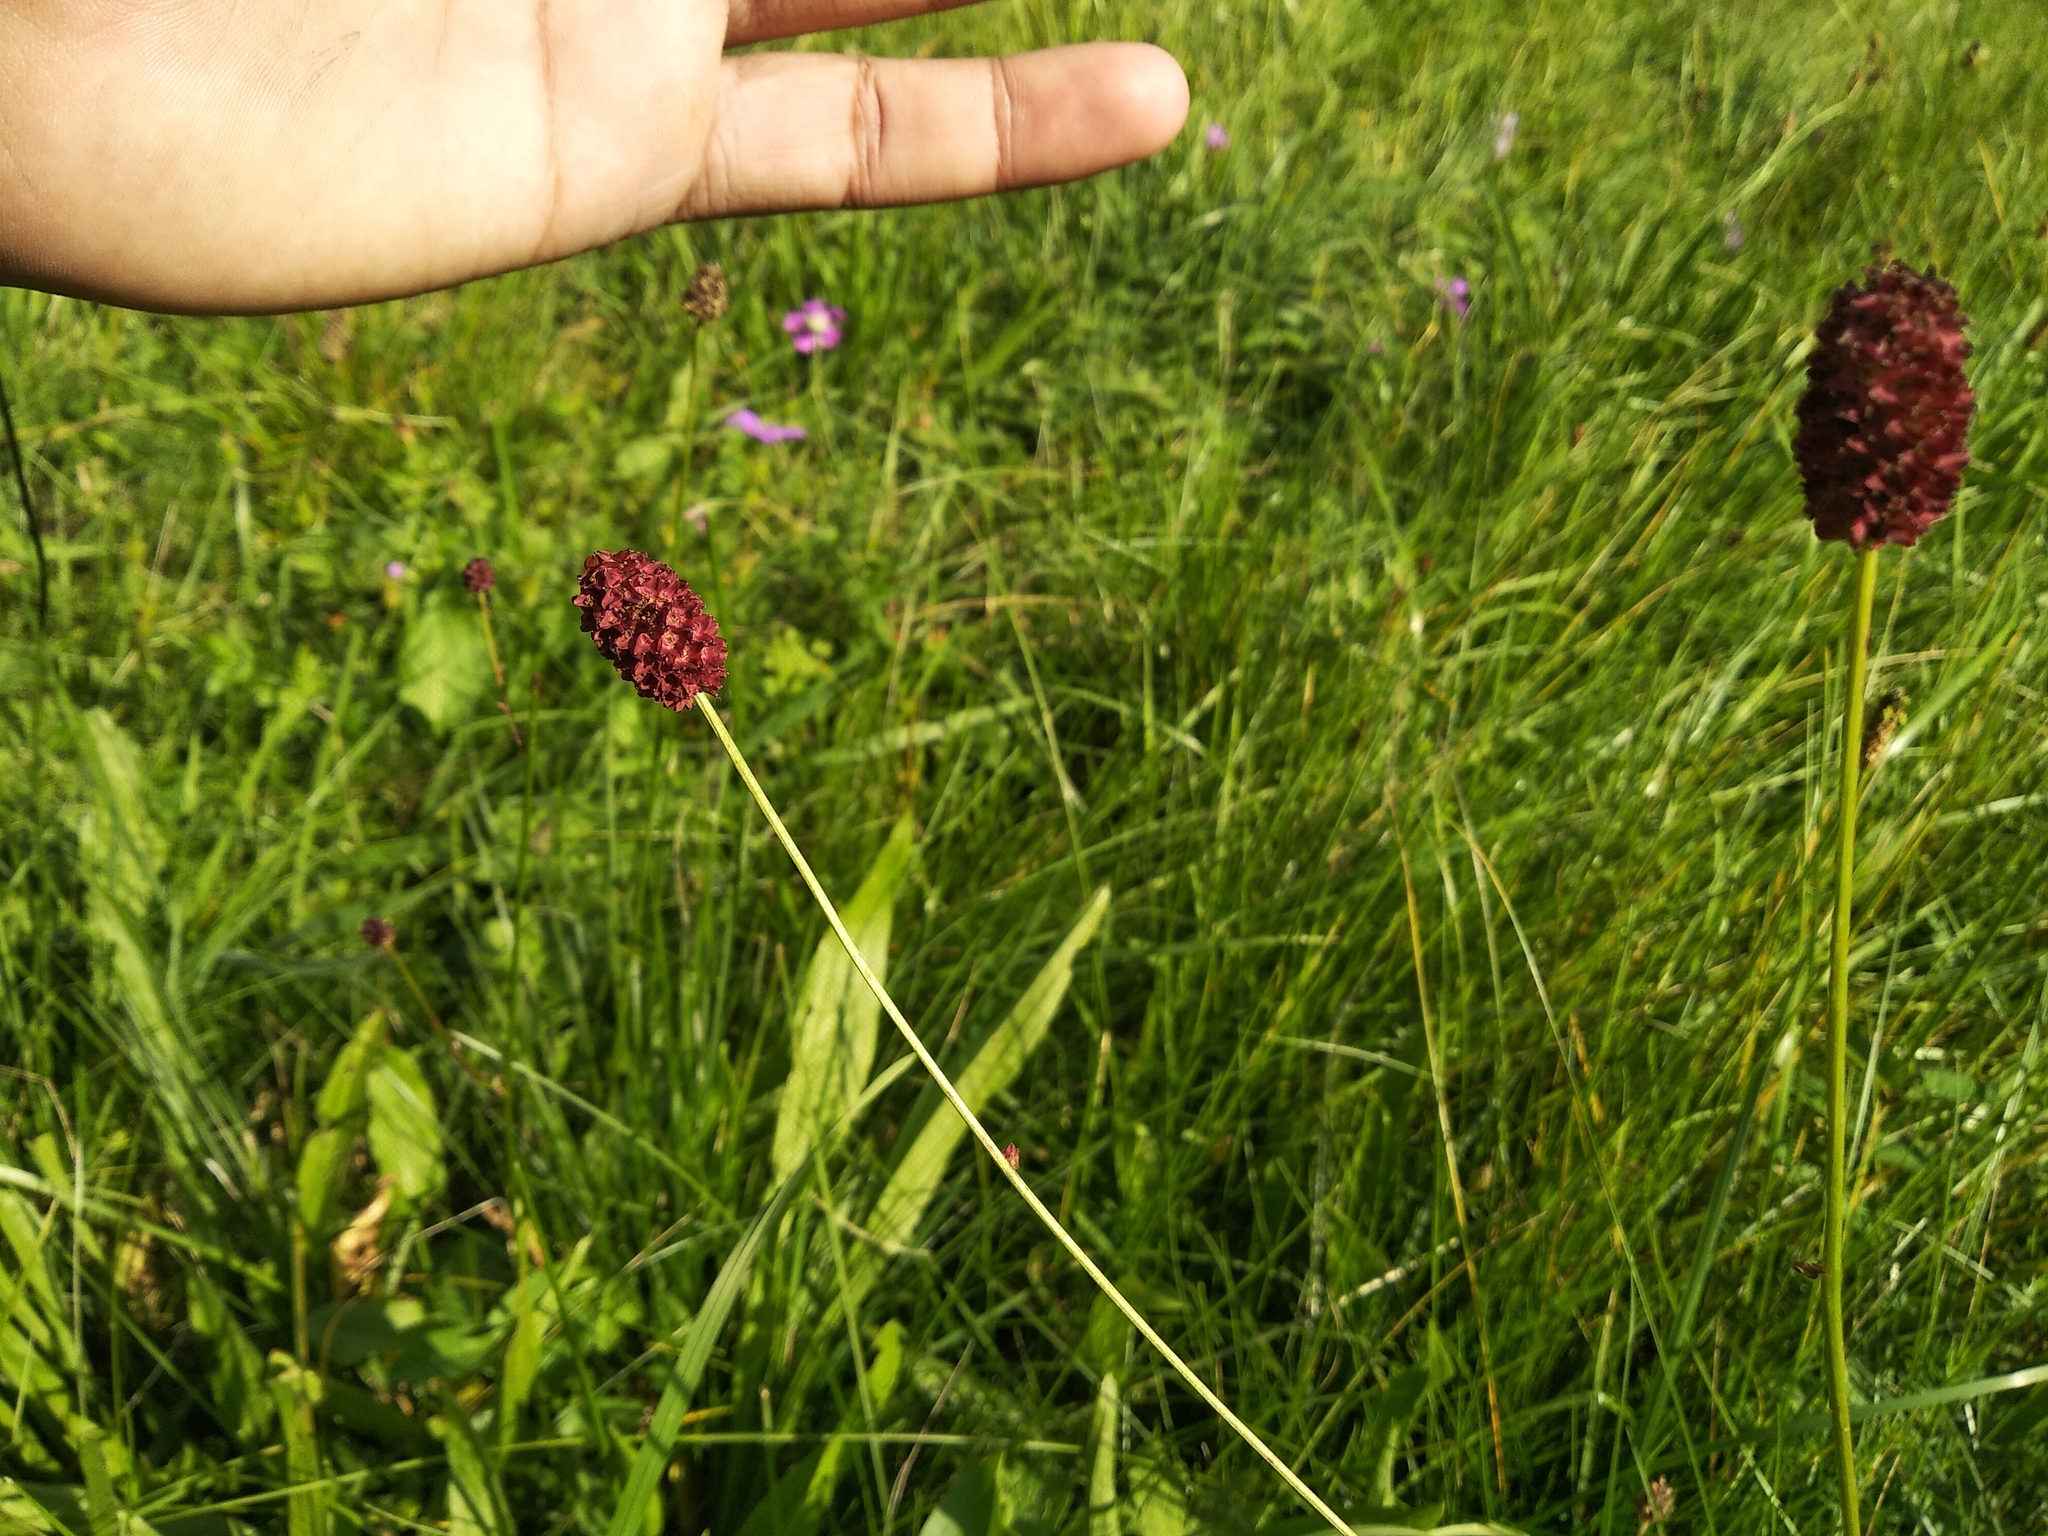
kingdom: Plantae
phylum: Tracheophyta
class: Magnoliopsida
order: Rosales
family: Rosaceae
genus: Sanguisorba
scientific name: Sanguisorba officinalis
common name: Great burnet
